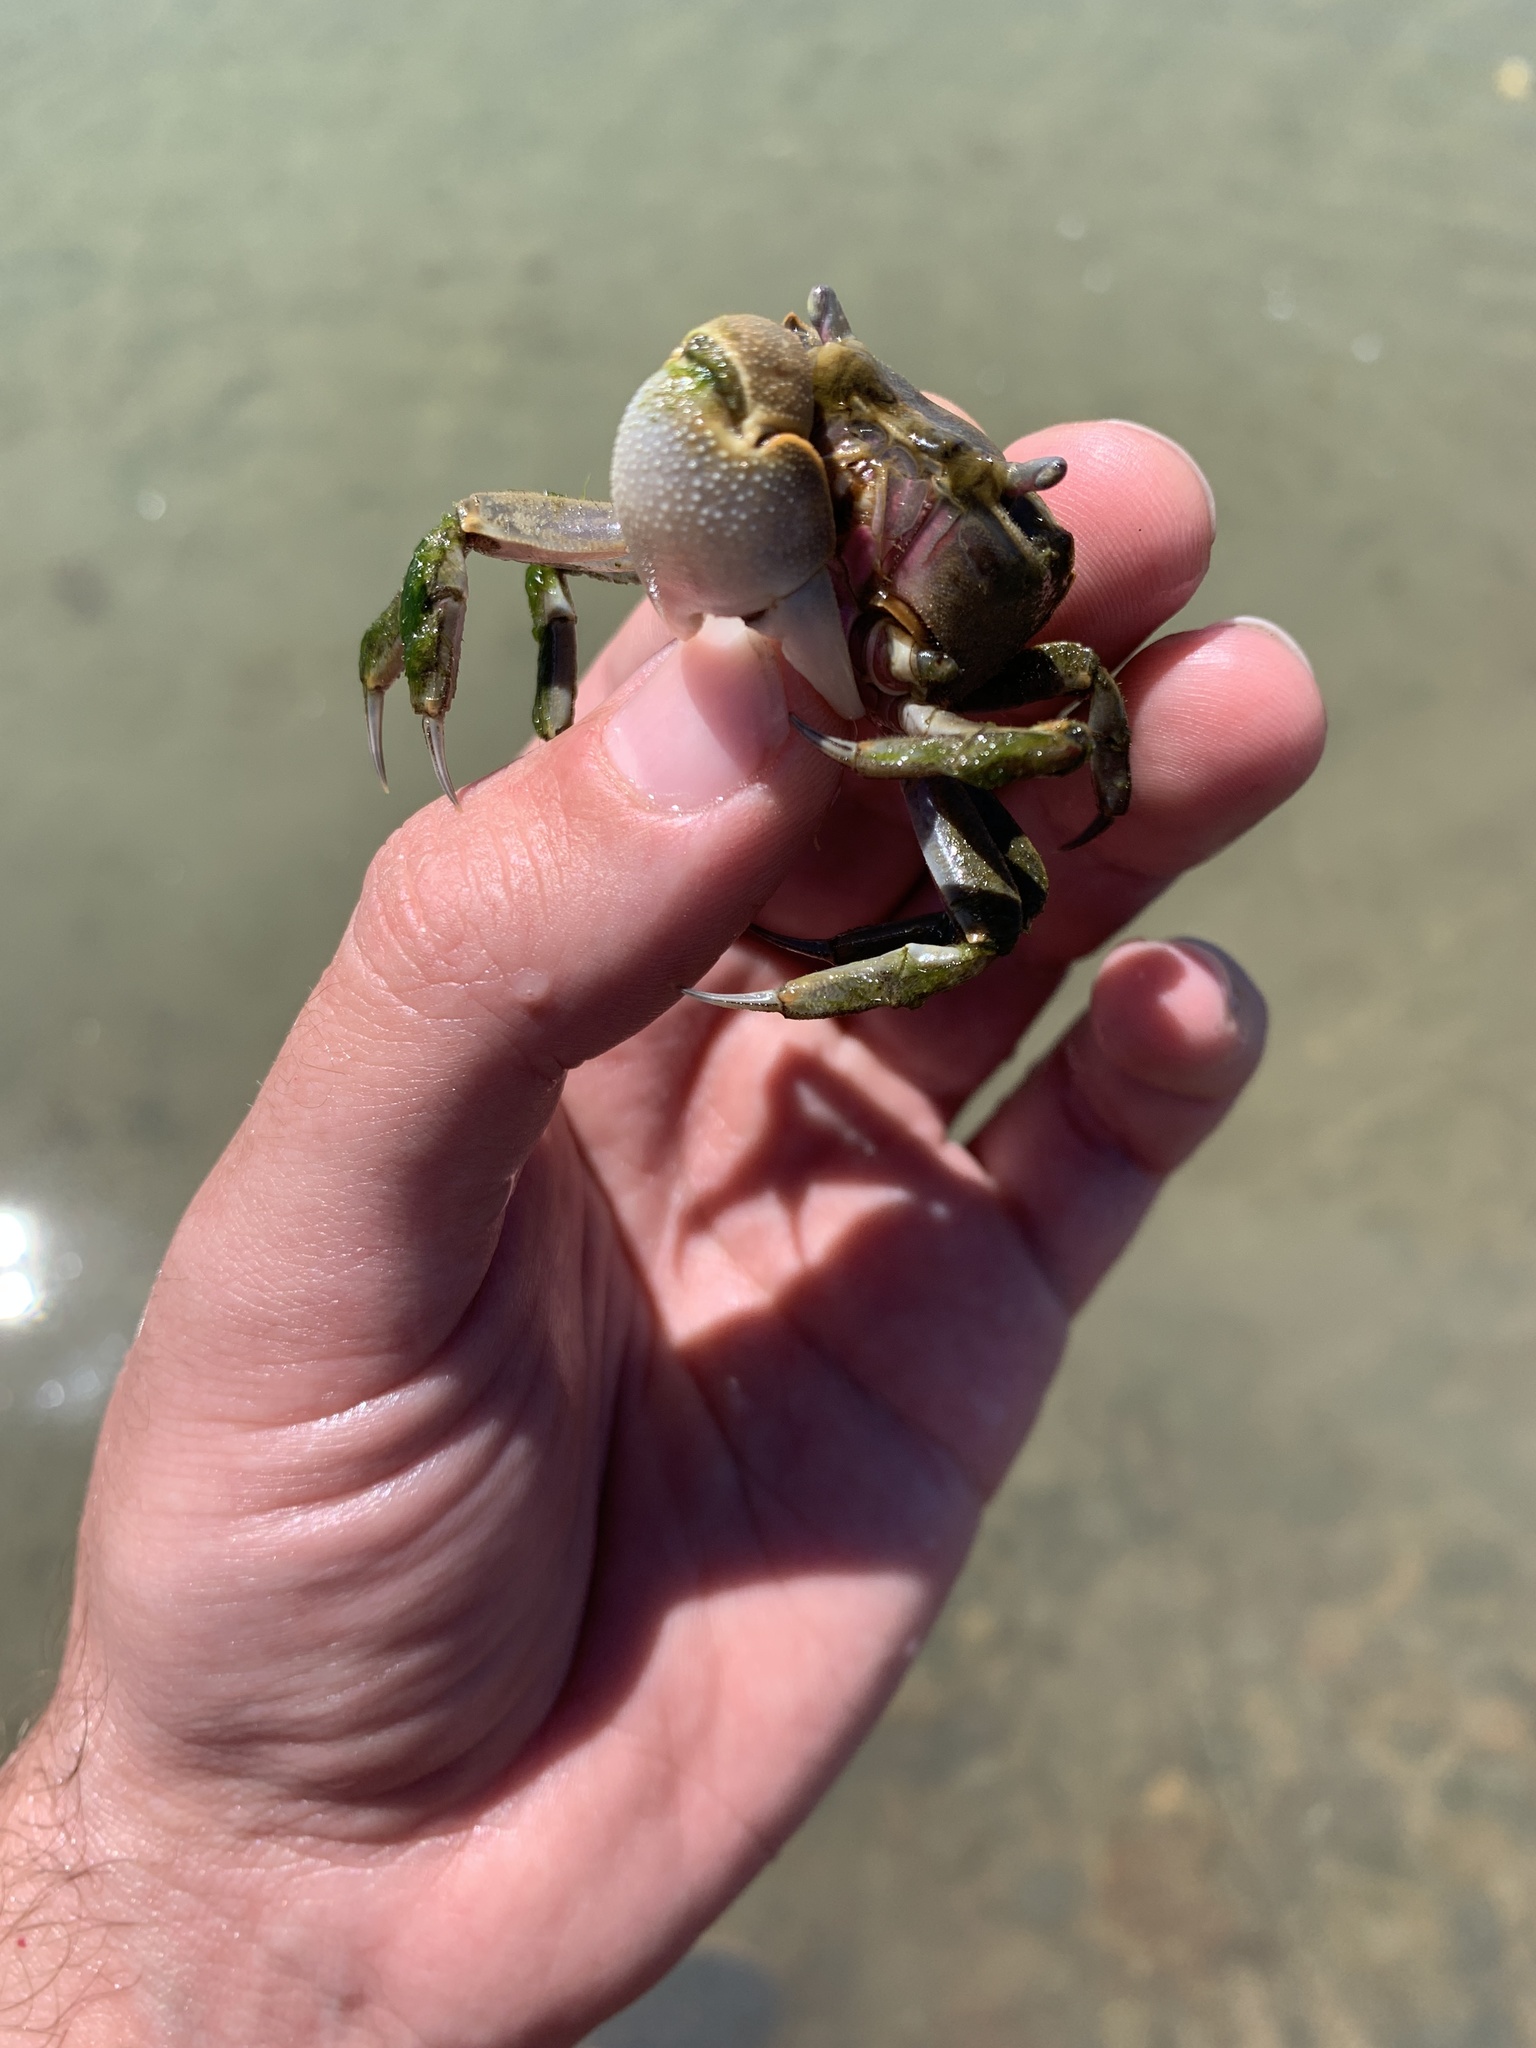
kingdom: Animalia
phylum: Arthropoda
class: Malacostraca
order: Decapoda
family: Varunidae
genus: Neohelice
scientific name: Neohelice granulata
